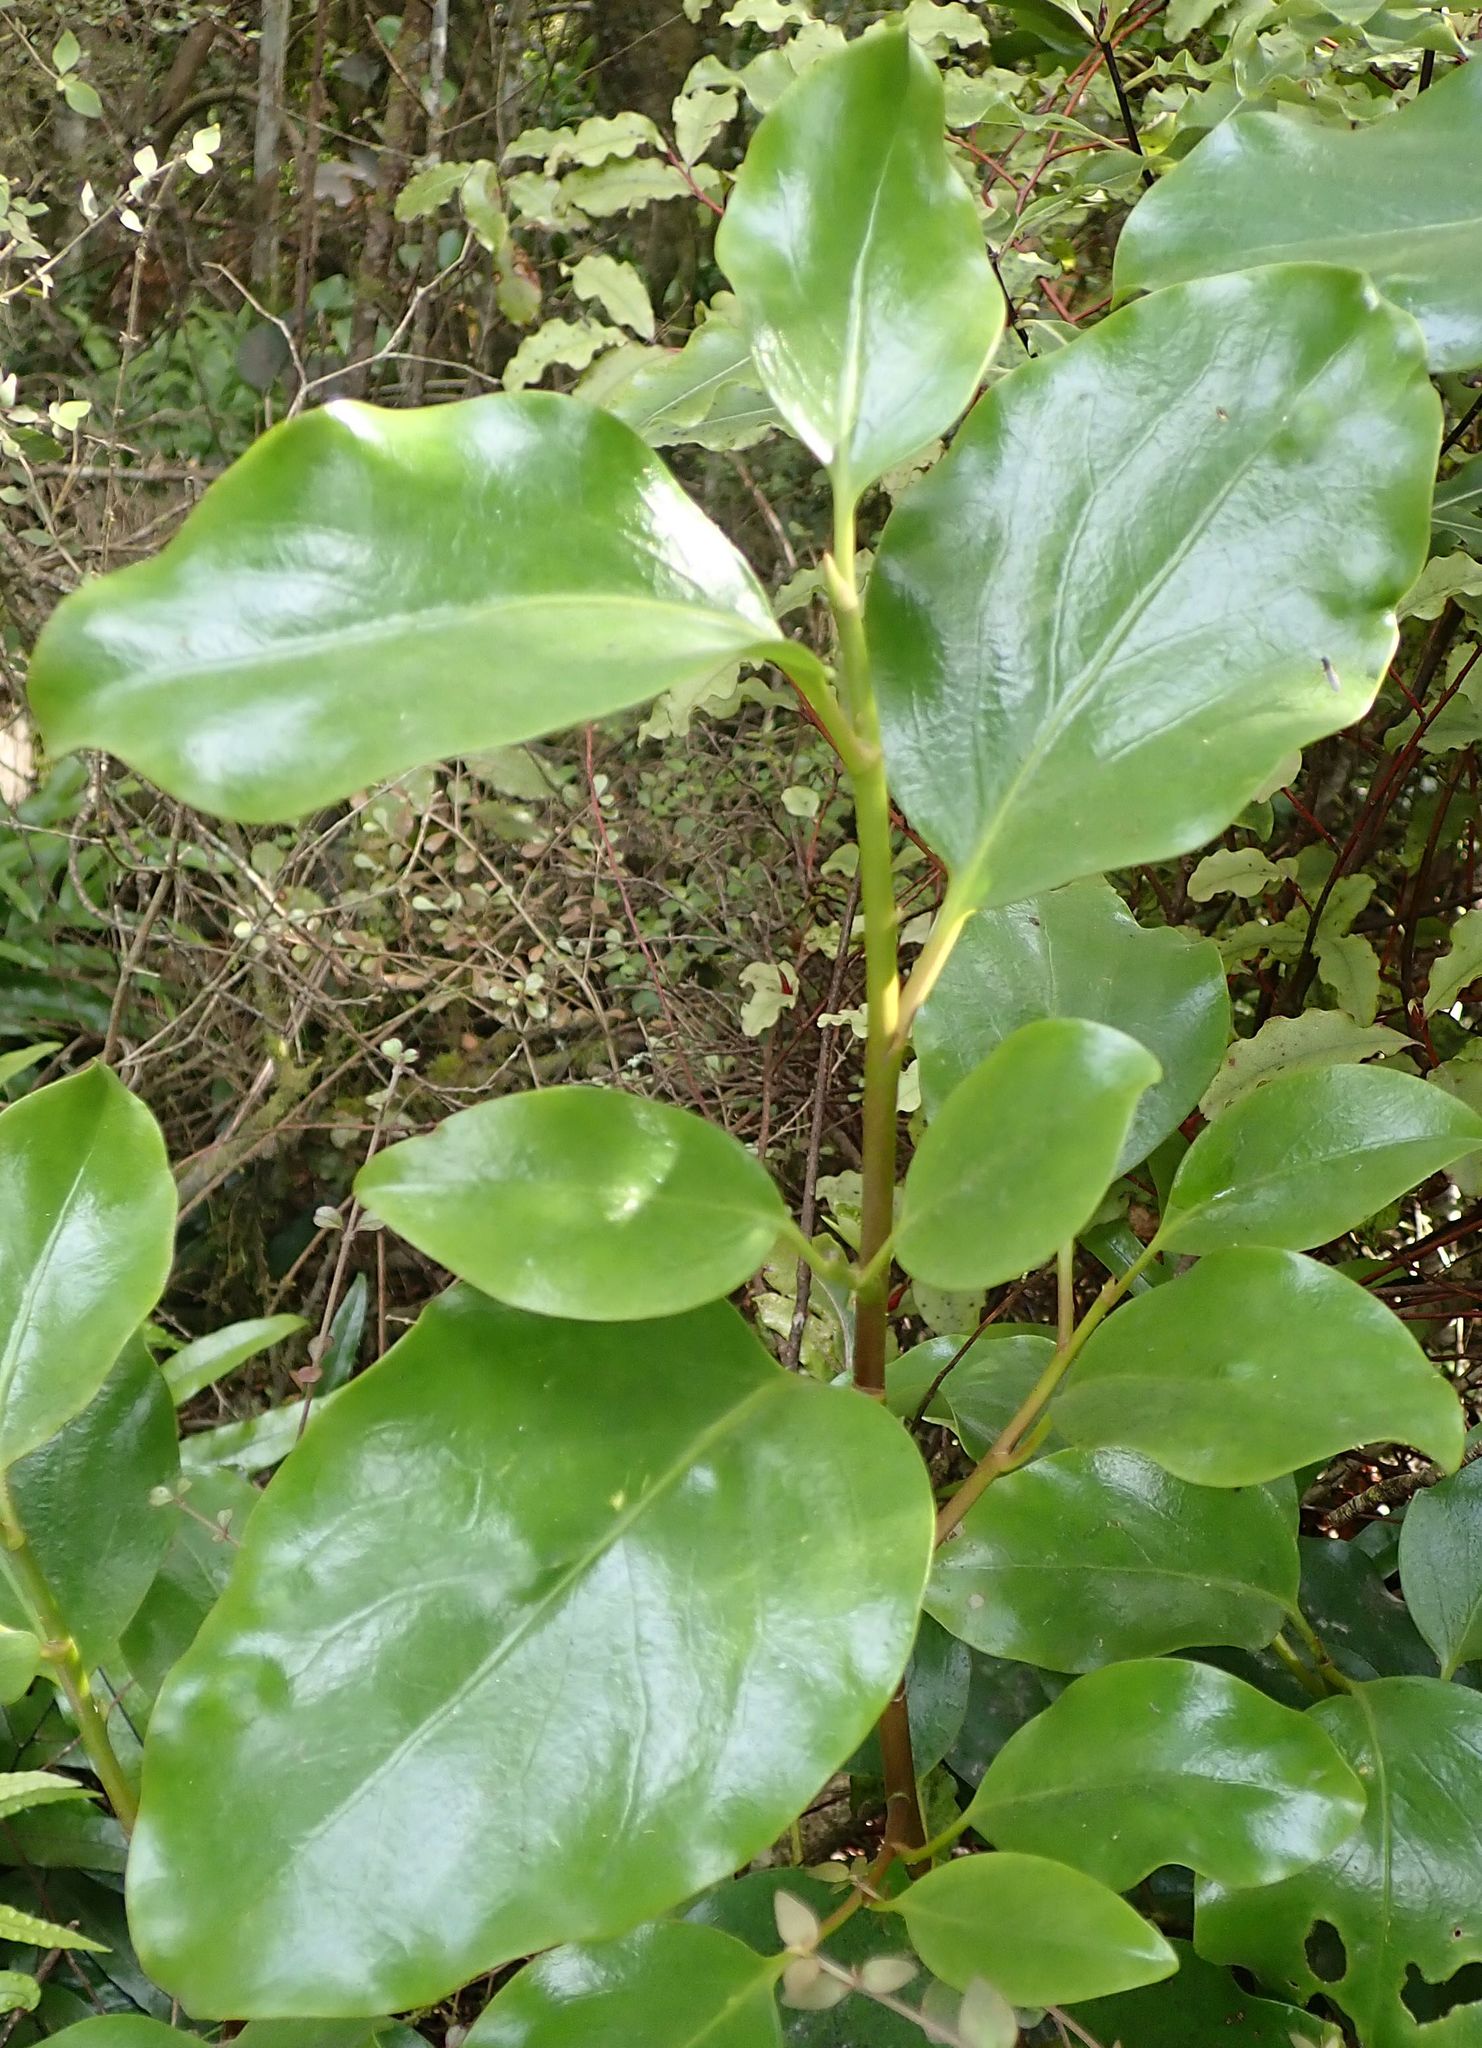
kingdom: Plantae
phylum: Tracheophyta
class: Magnoliopsida
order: Apiales
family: Griseliniaceae
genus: Griselinia
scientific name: Griselinia littoralis
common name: New zealand broadleaf
